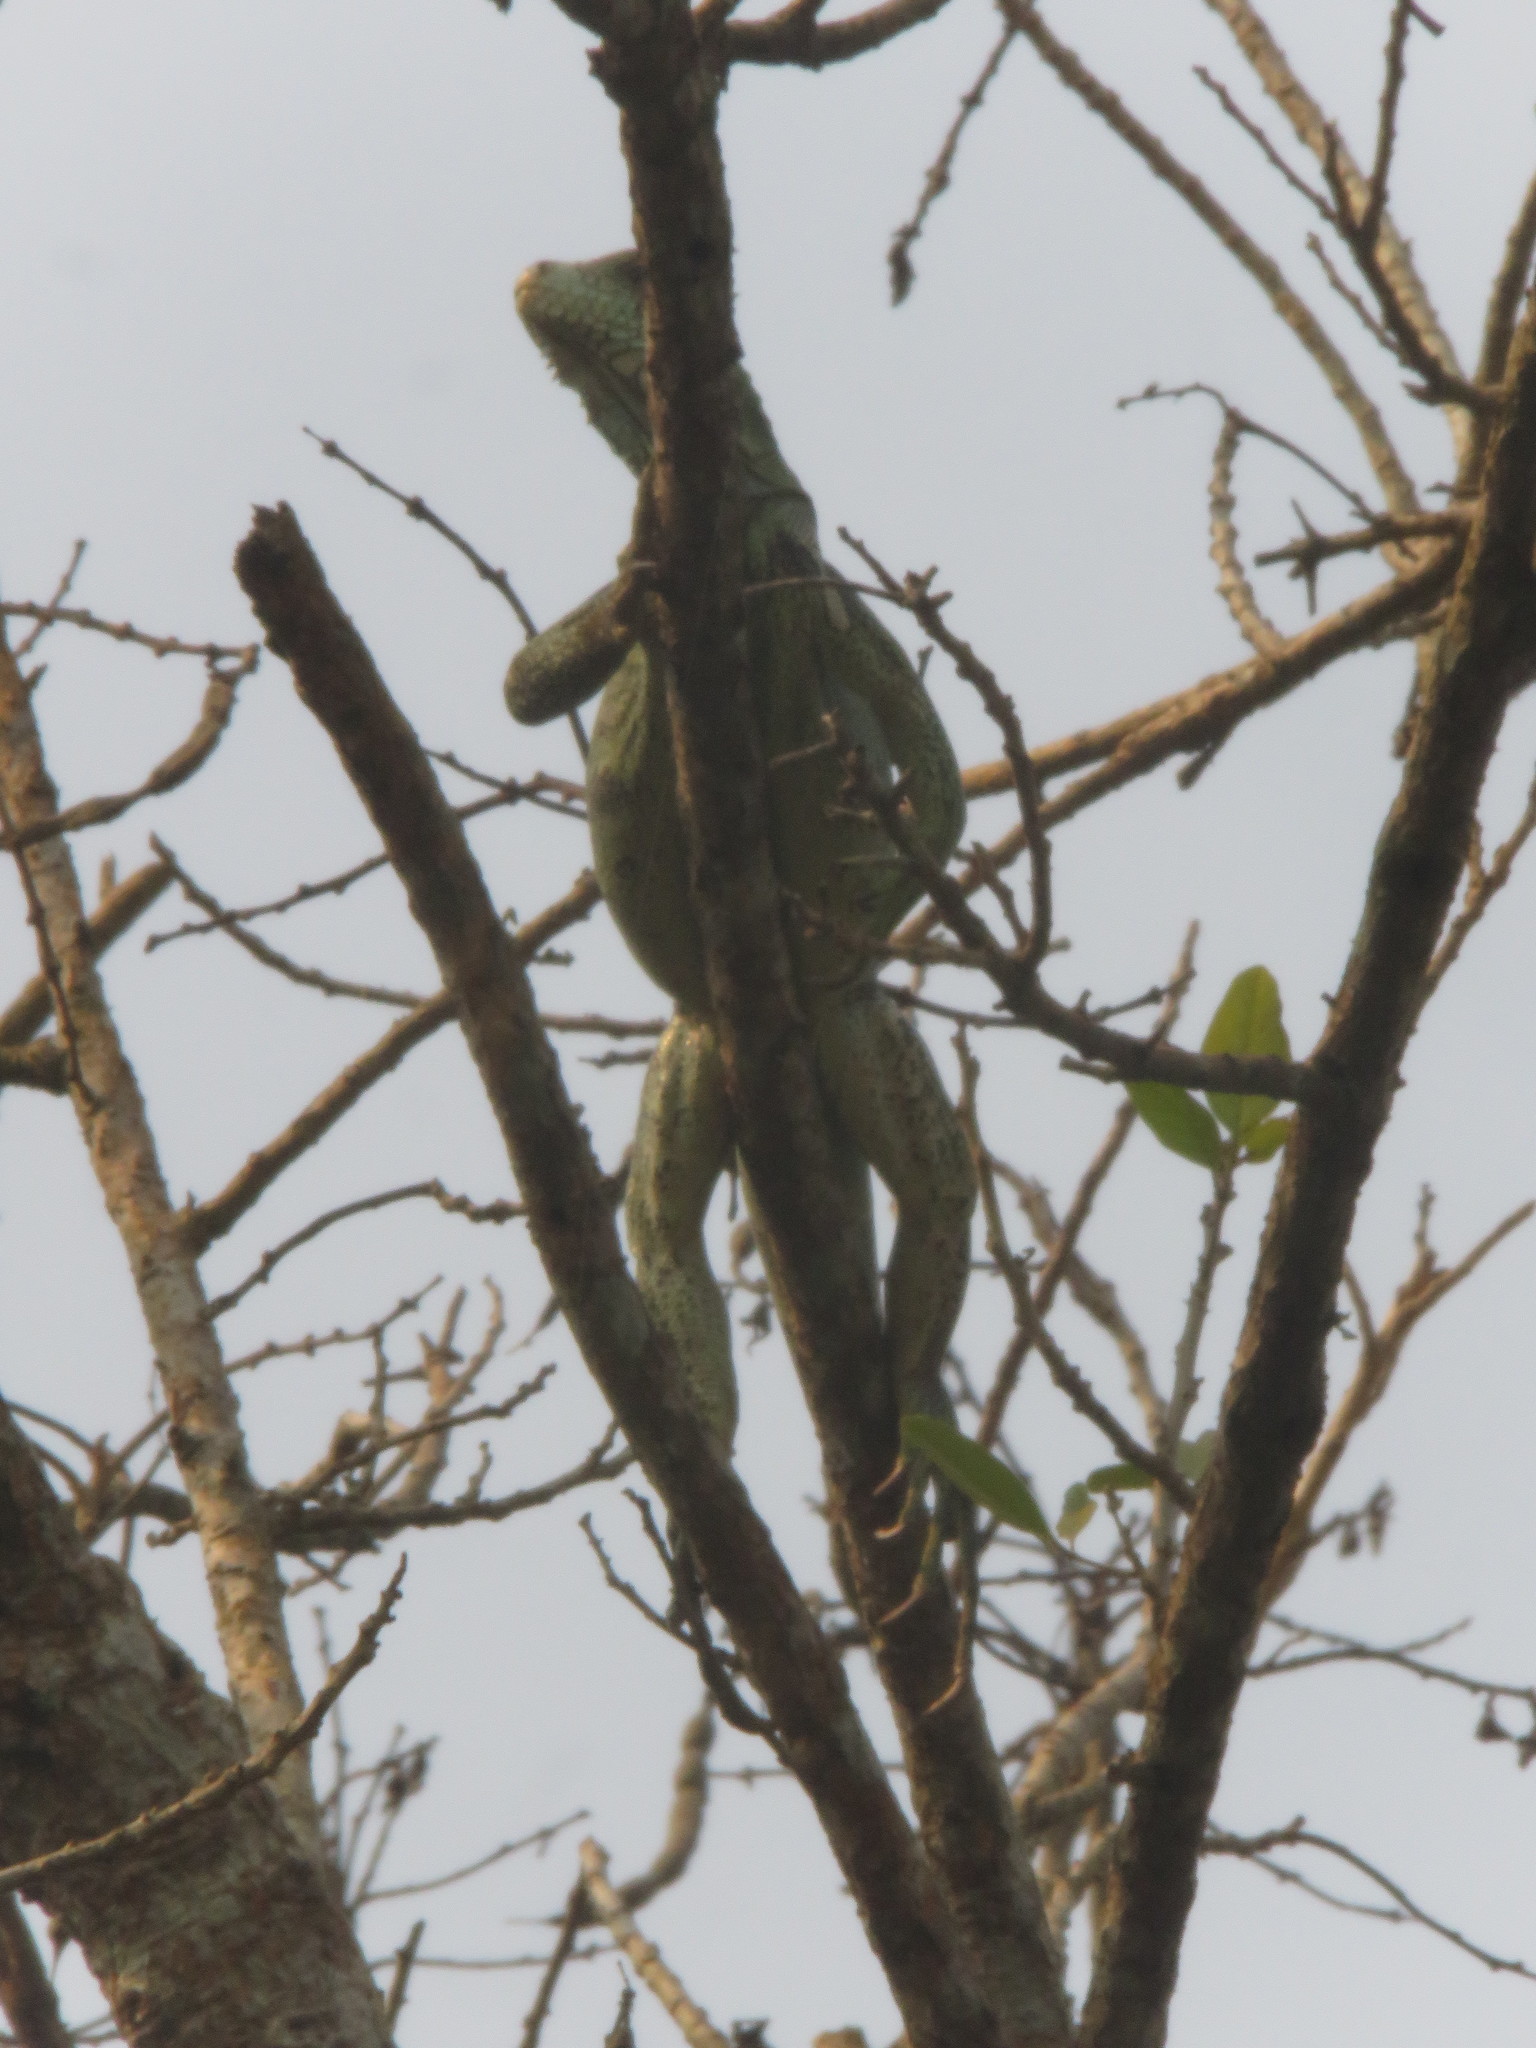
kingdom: Animalia
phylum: Chordata
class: Squamata
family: Iguanidae
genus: Iguana
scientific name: Iguana iguana
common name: Green iguana
